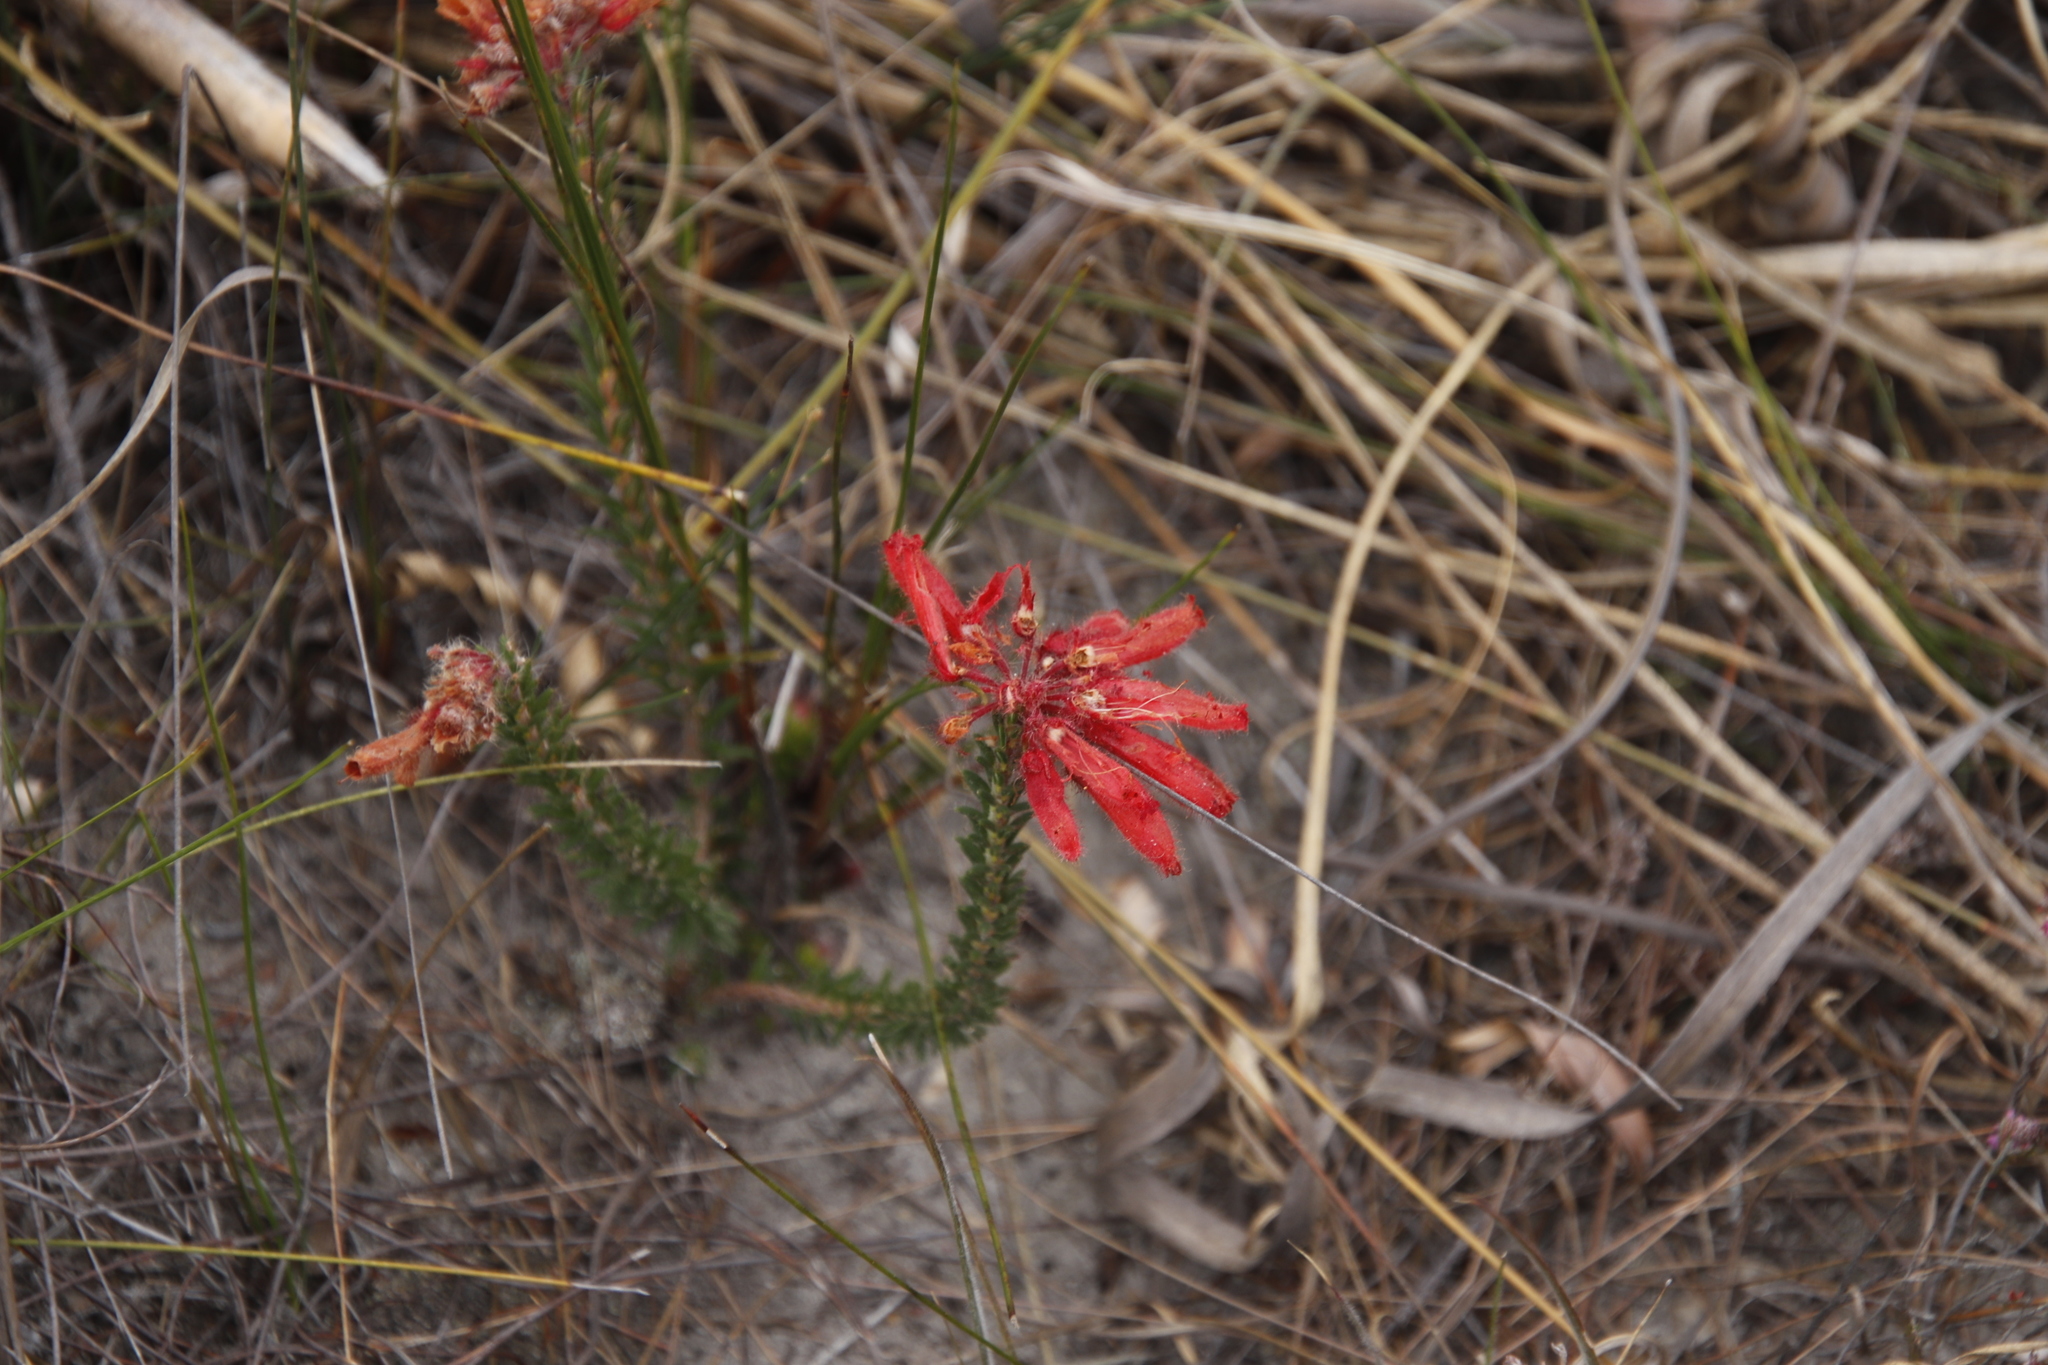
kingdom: Plantae
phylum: Tracheophyta
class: Magnoliopsida
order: Ericales
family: Ericaceae
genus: Erica
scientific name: Erica cerinthoides
